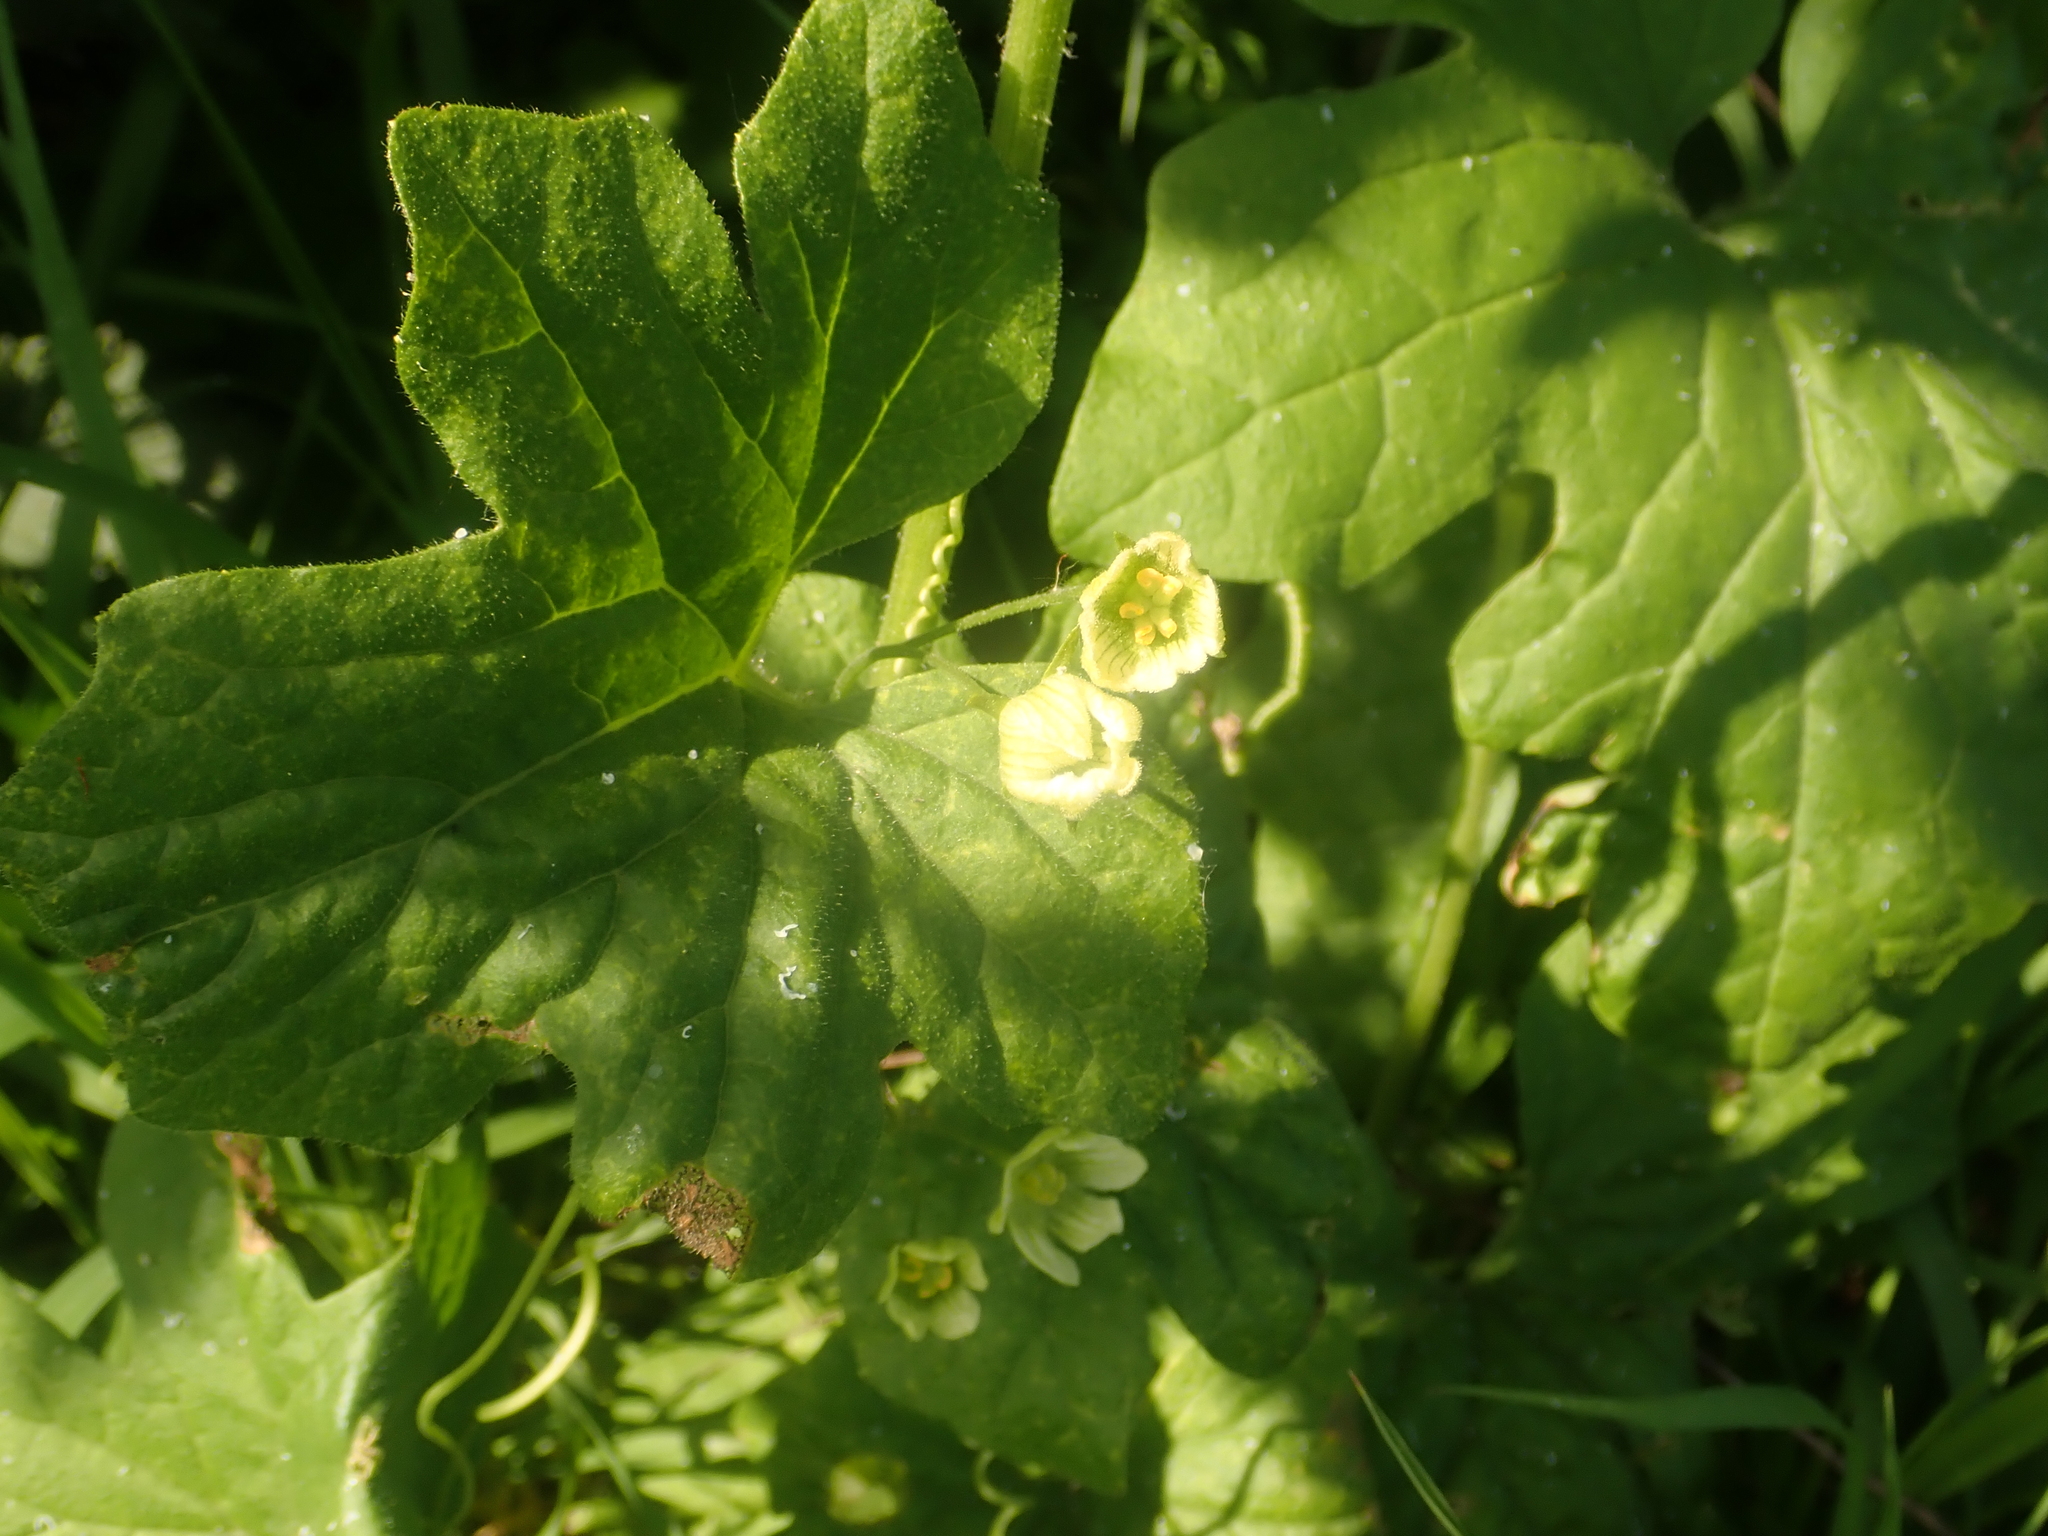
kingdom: Plantae
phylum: Tracheophyta
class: Magnoliopsida
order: Cucurbitales
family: Cucurbitaceae
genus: Bryonia
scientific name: Bryonia cretica
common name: Cretan bryony
